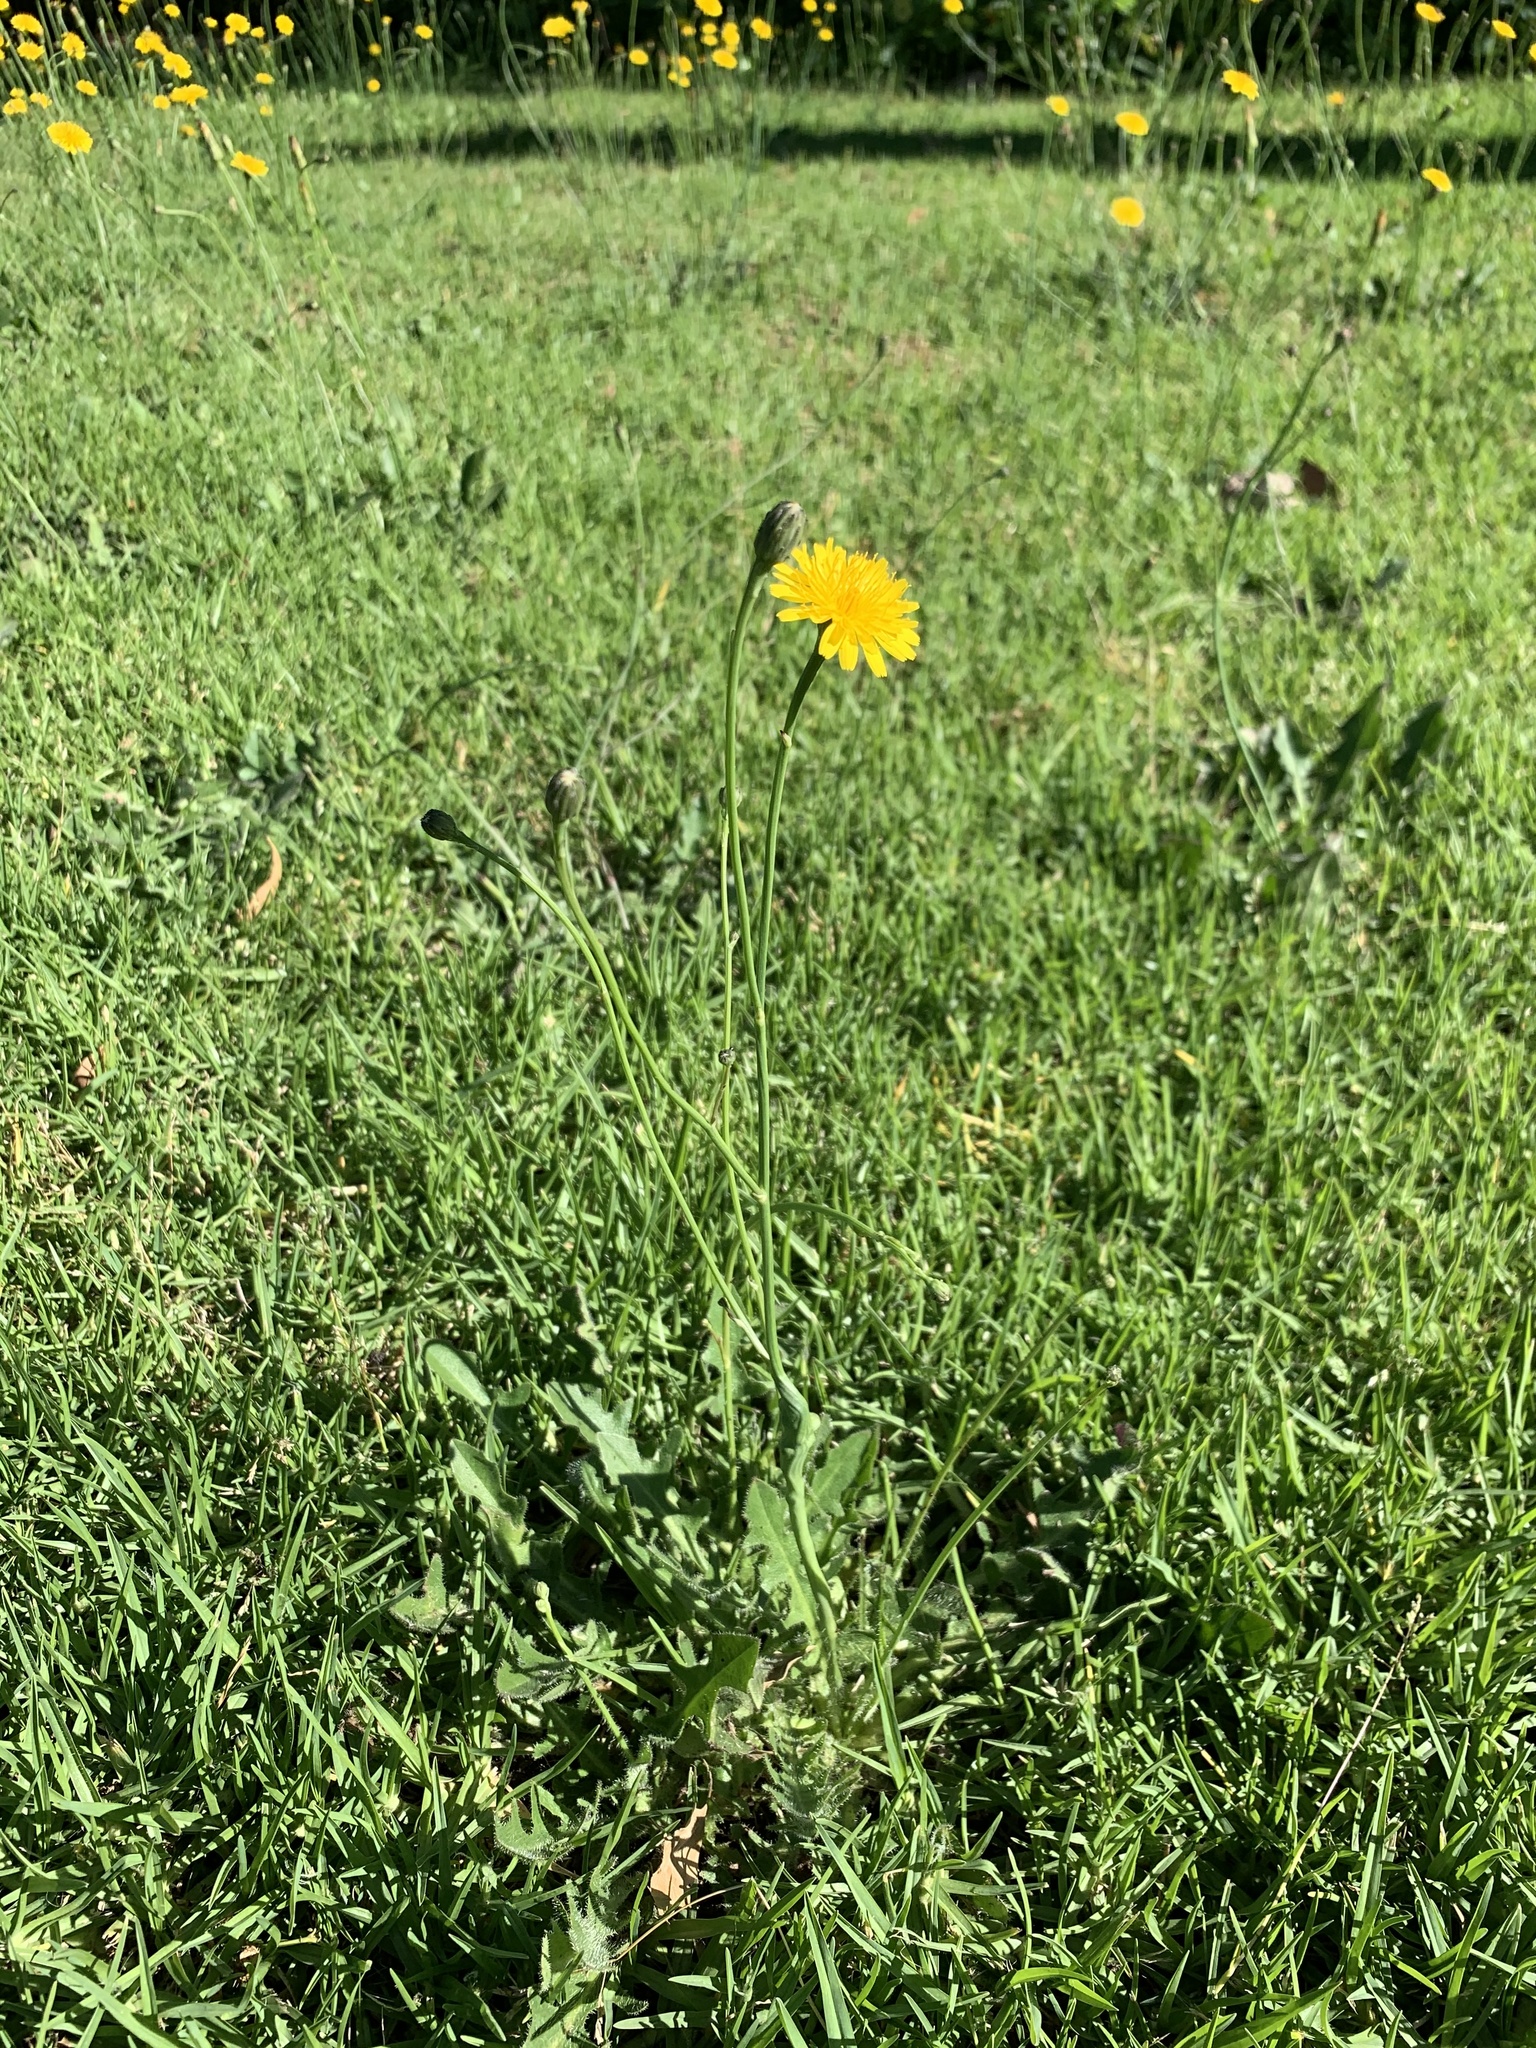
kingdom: Plantae
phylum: Tracheophyta
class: Magnoliopsida
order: Asterales
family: Asteraceae
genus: Hypochaeris
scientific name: Hypochaeris radicata
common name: Flatweed
